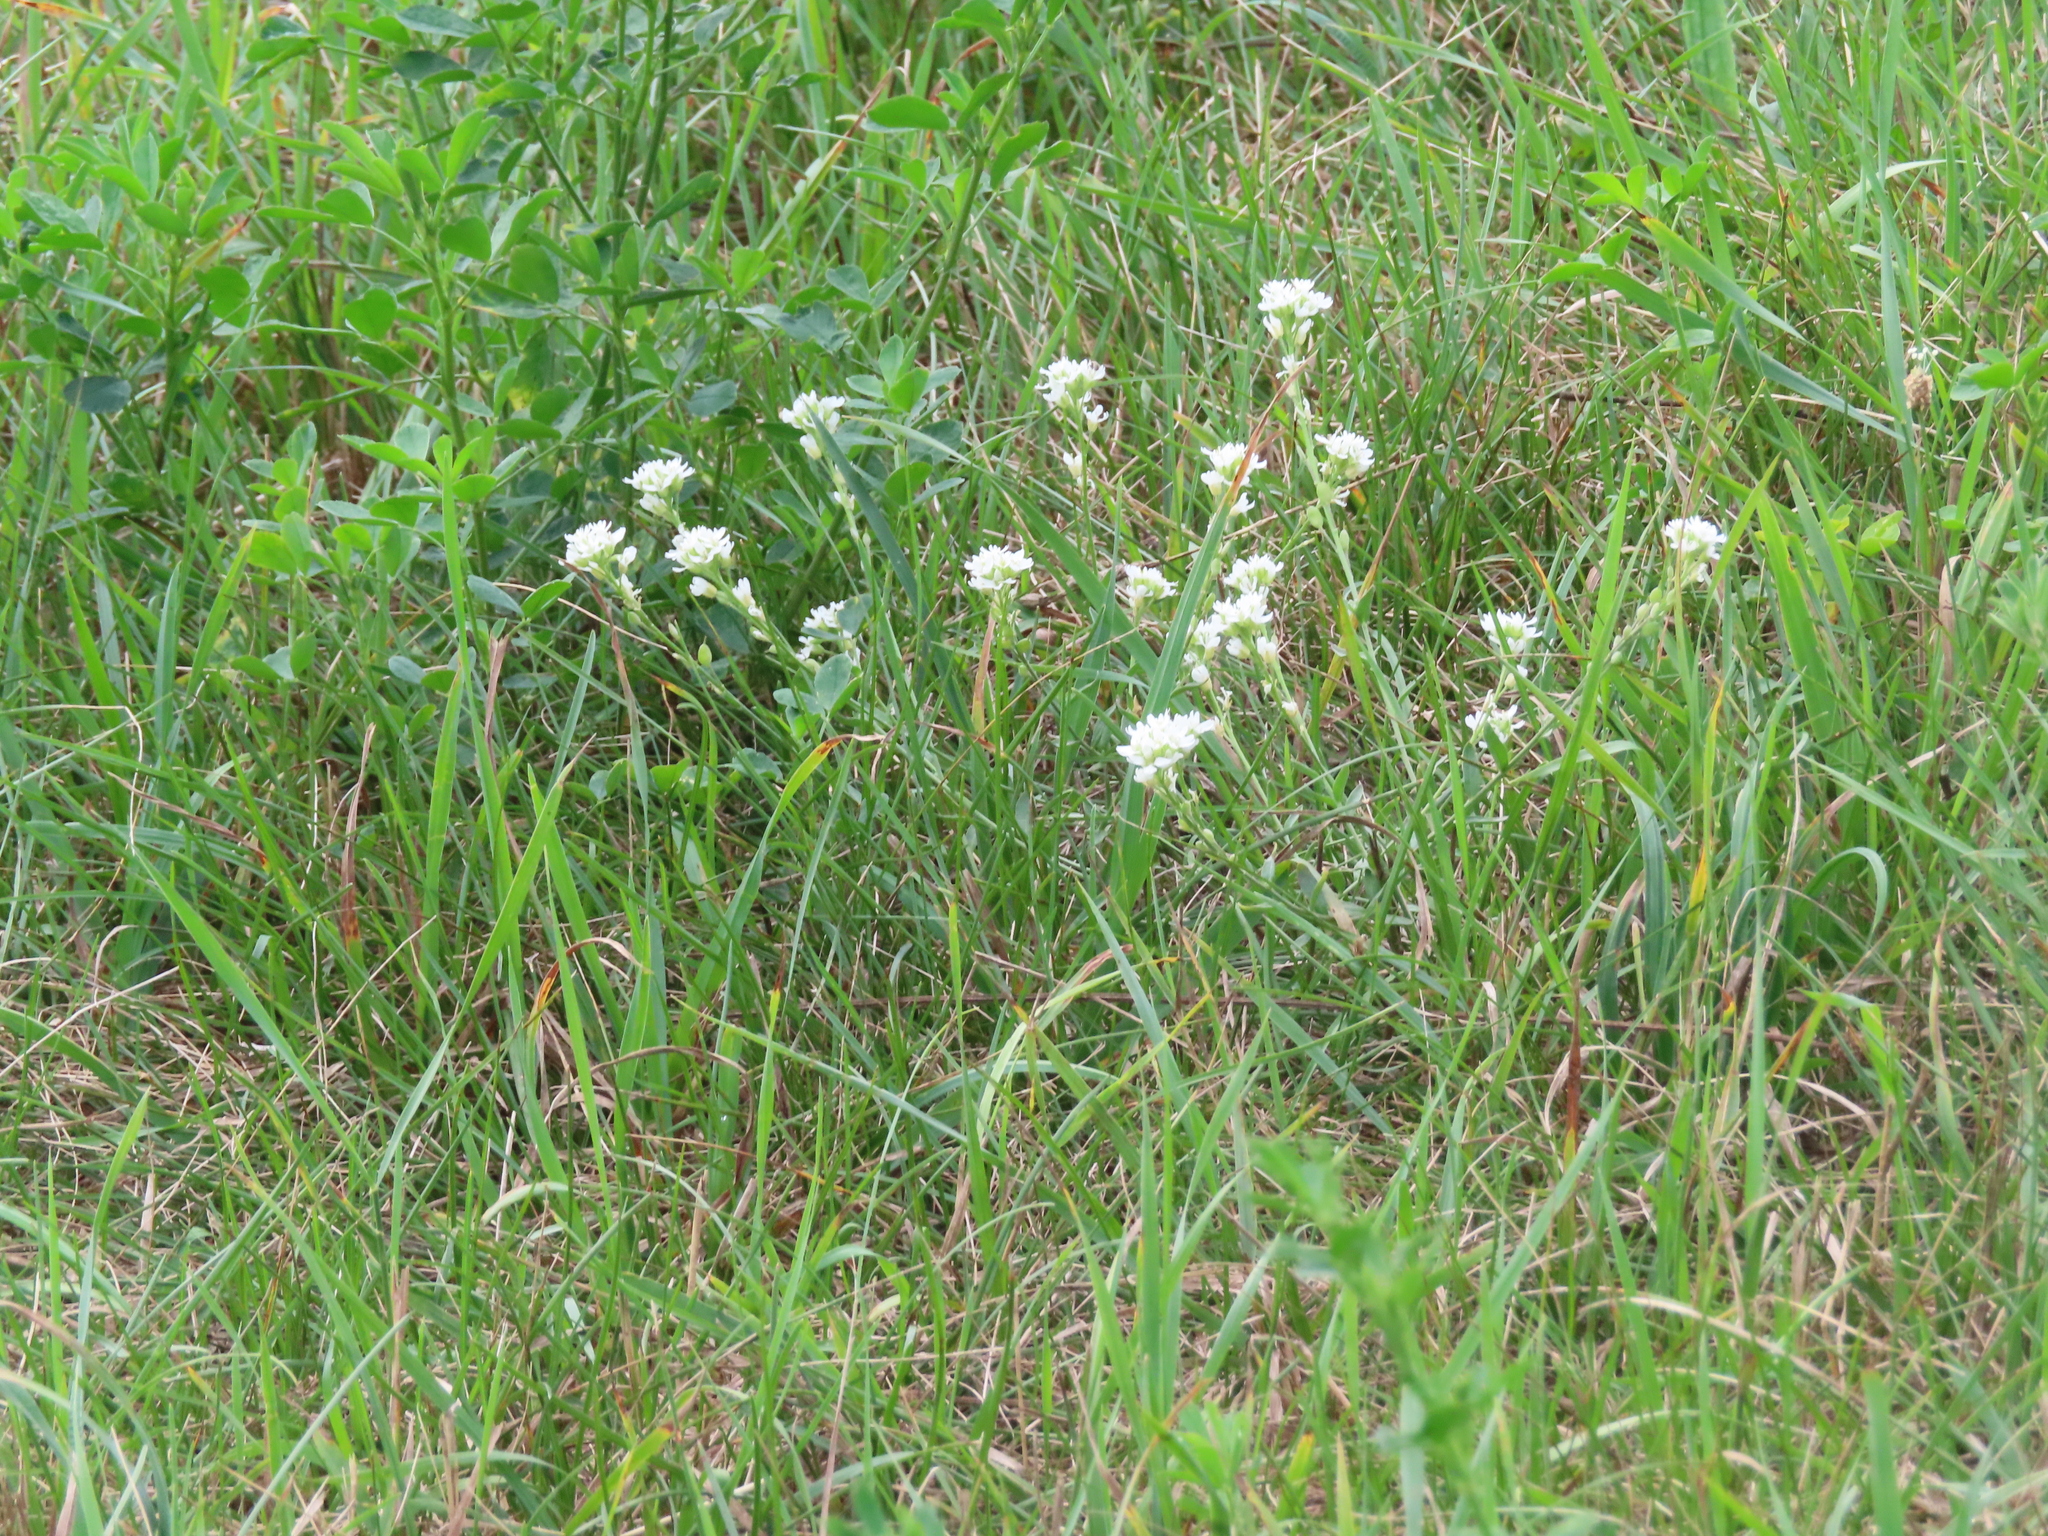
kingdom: Plantae
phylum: Tracheophyta
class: Magnoliopsida
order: Brassicales
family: Brassicaceae
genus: Berteroa
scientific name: Berteroa incana
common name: Hoary alison
